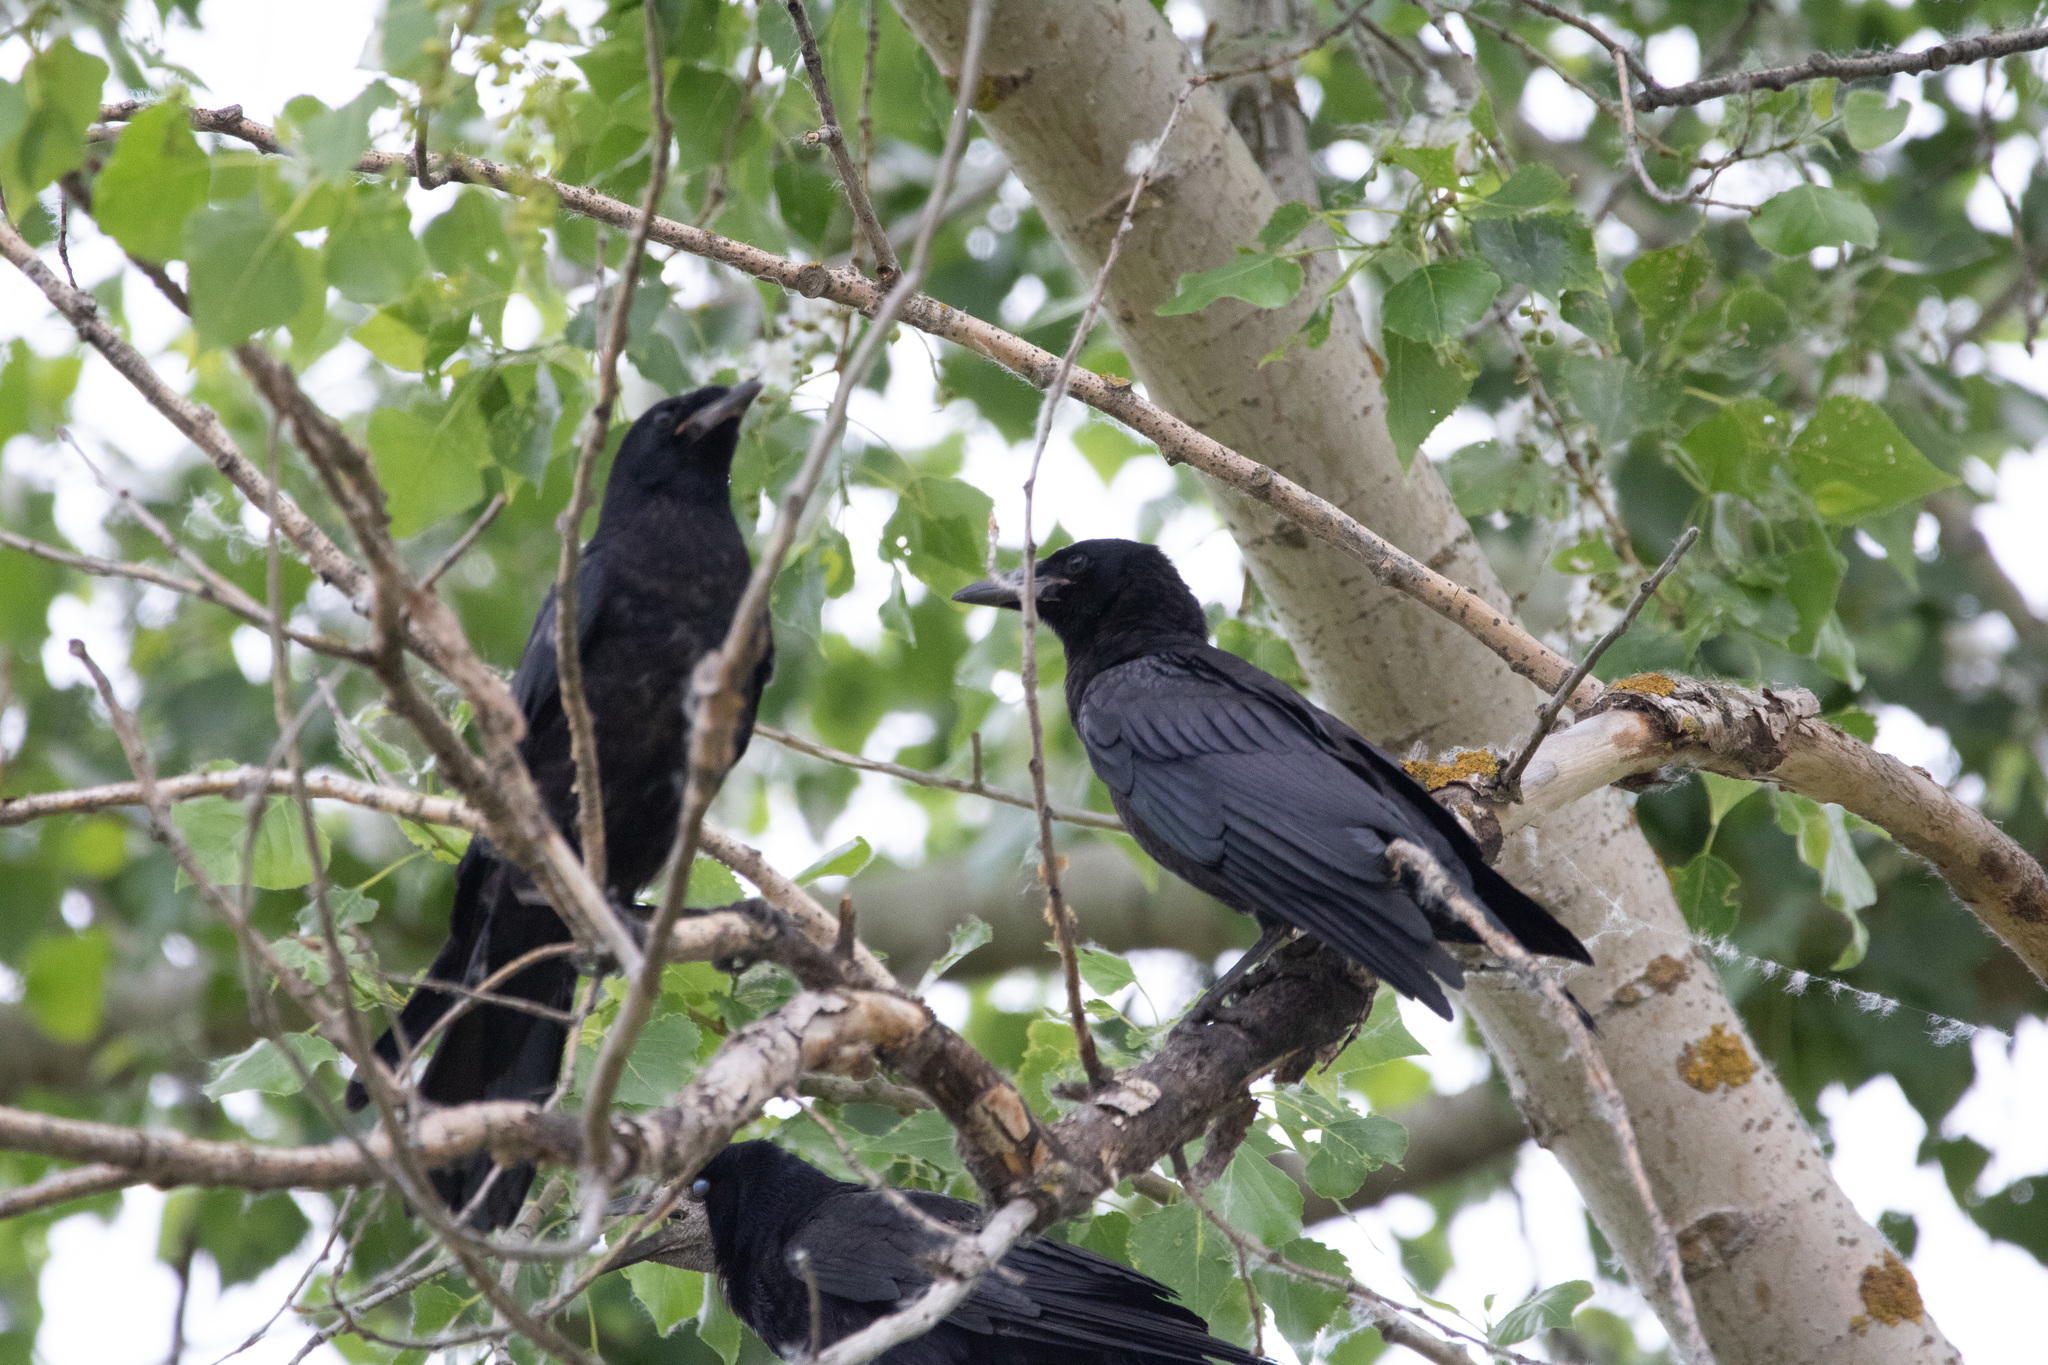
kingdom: Animalia
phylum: Chordata
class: Aves
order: Passeriformes
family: Corvidae
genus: Corvus
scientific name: Corvus frugilegus
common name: Rook
